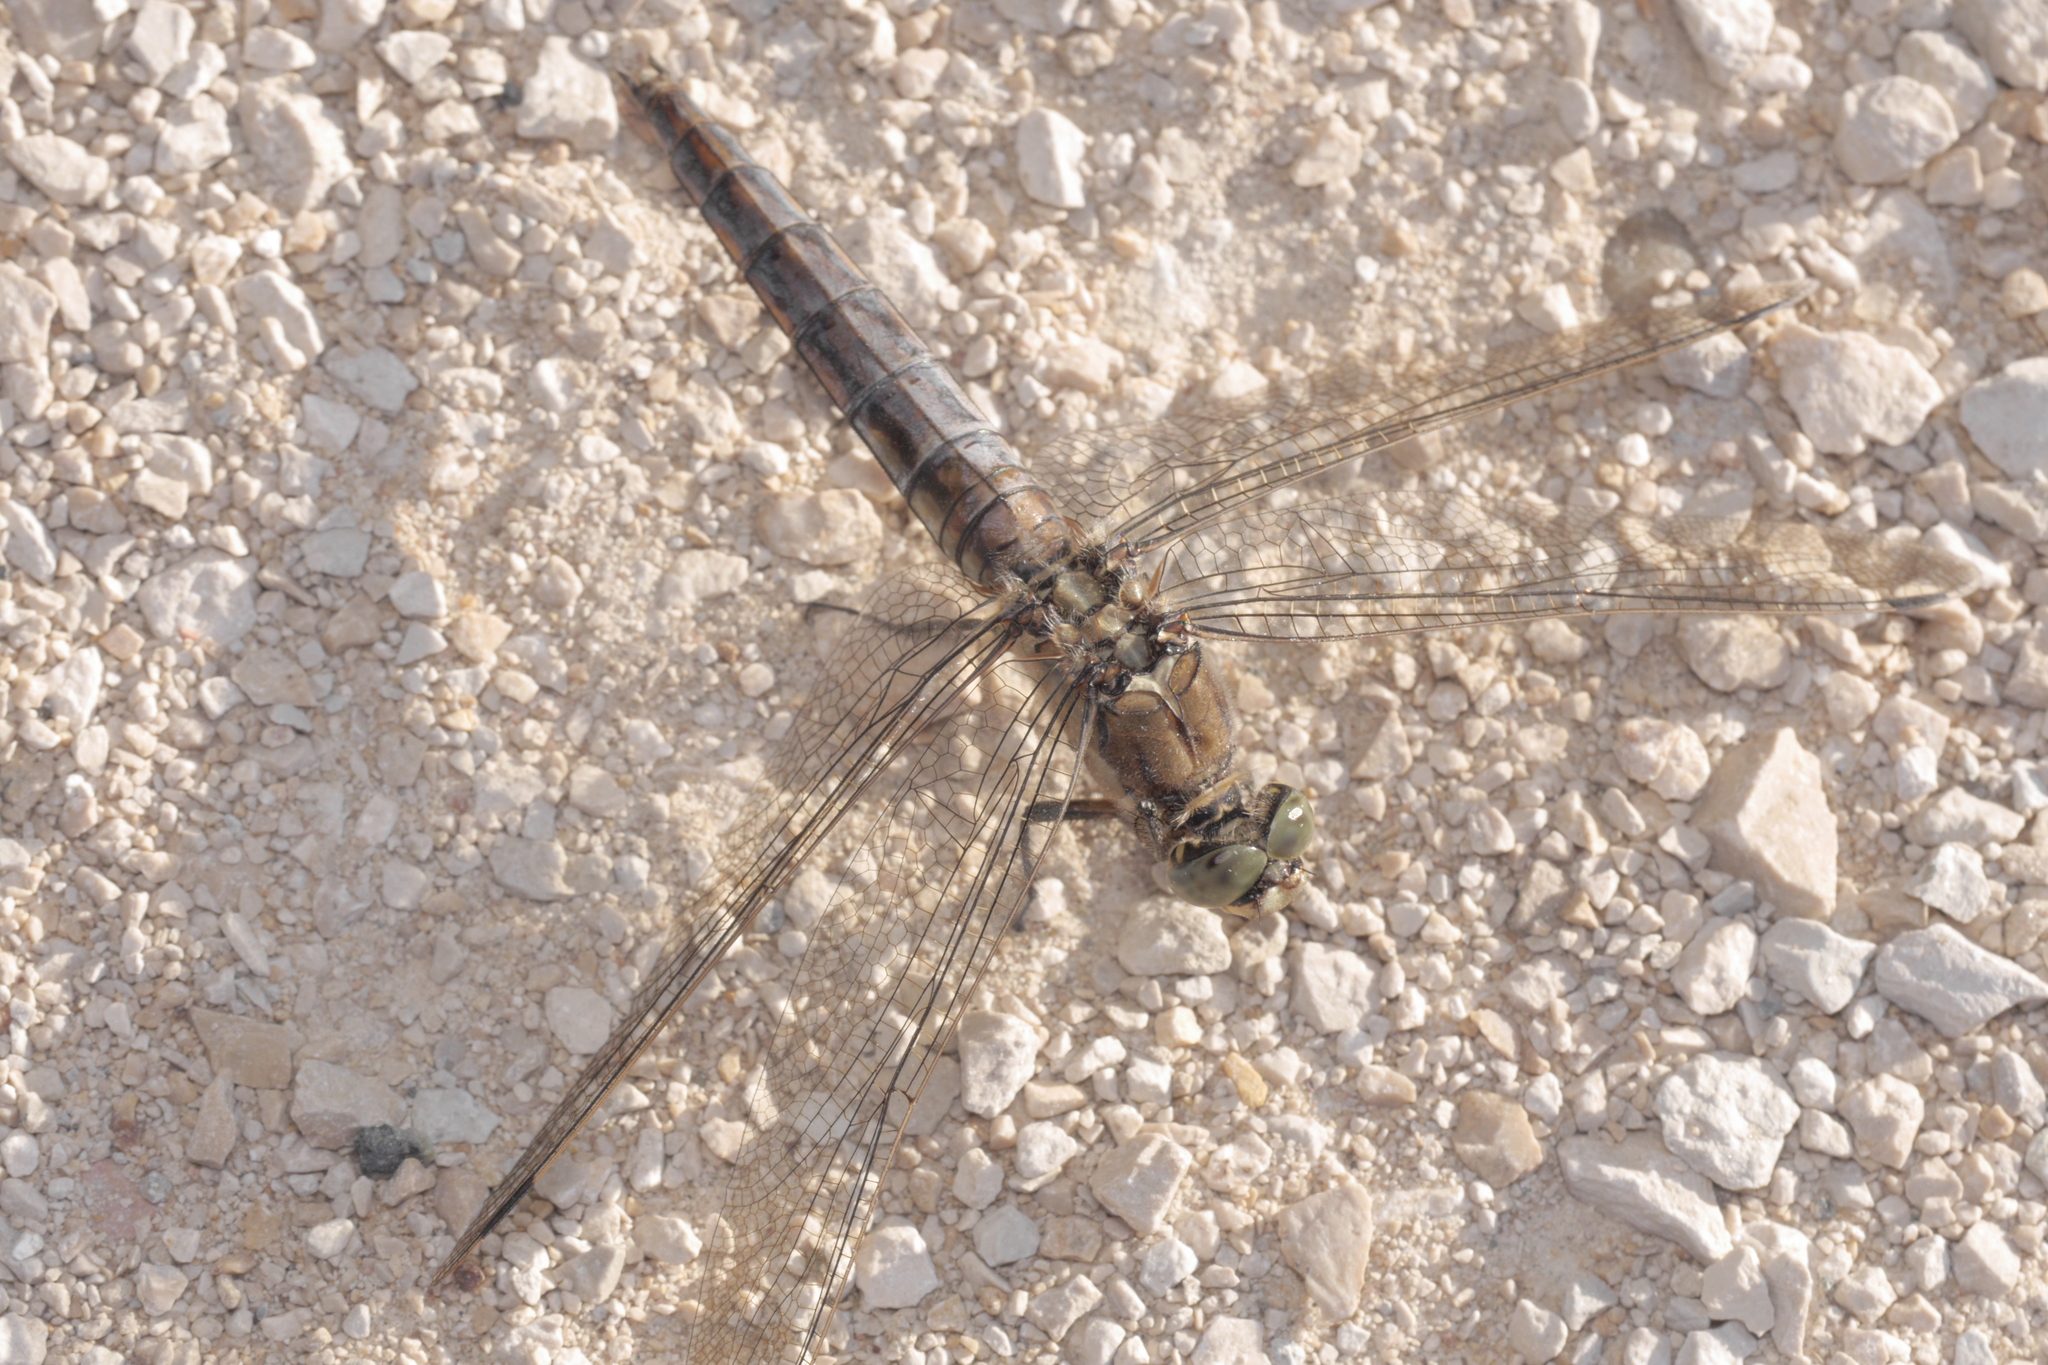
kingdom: Animalia
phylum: Arthropoda
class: Insecta
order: Odonata
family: Libellulidae
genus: Orthetrum
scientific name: Orthetrum cancellatum
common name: Black-tailed skimmer
